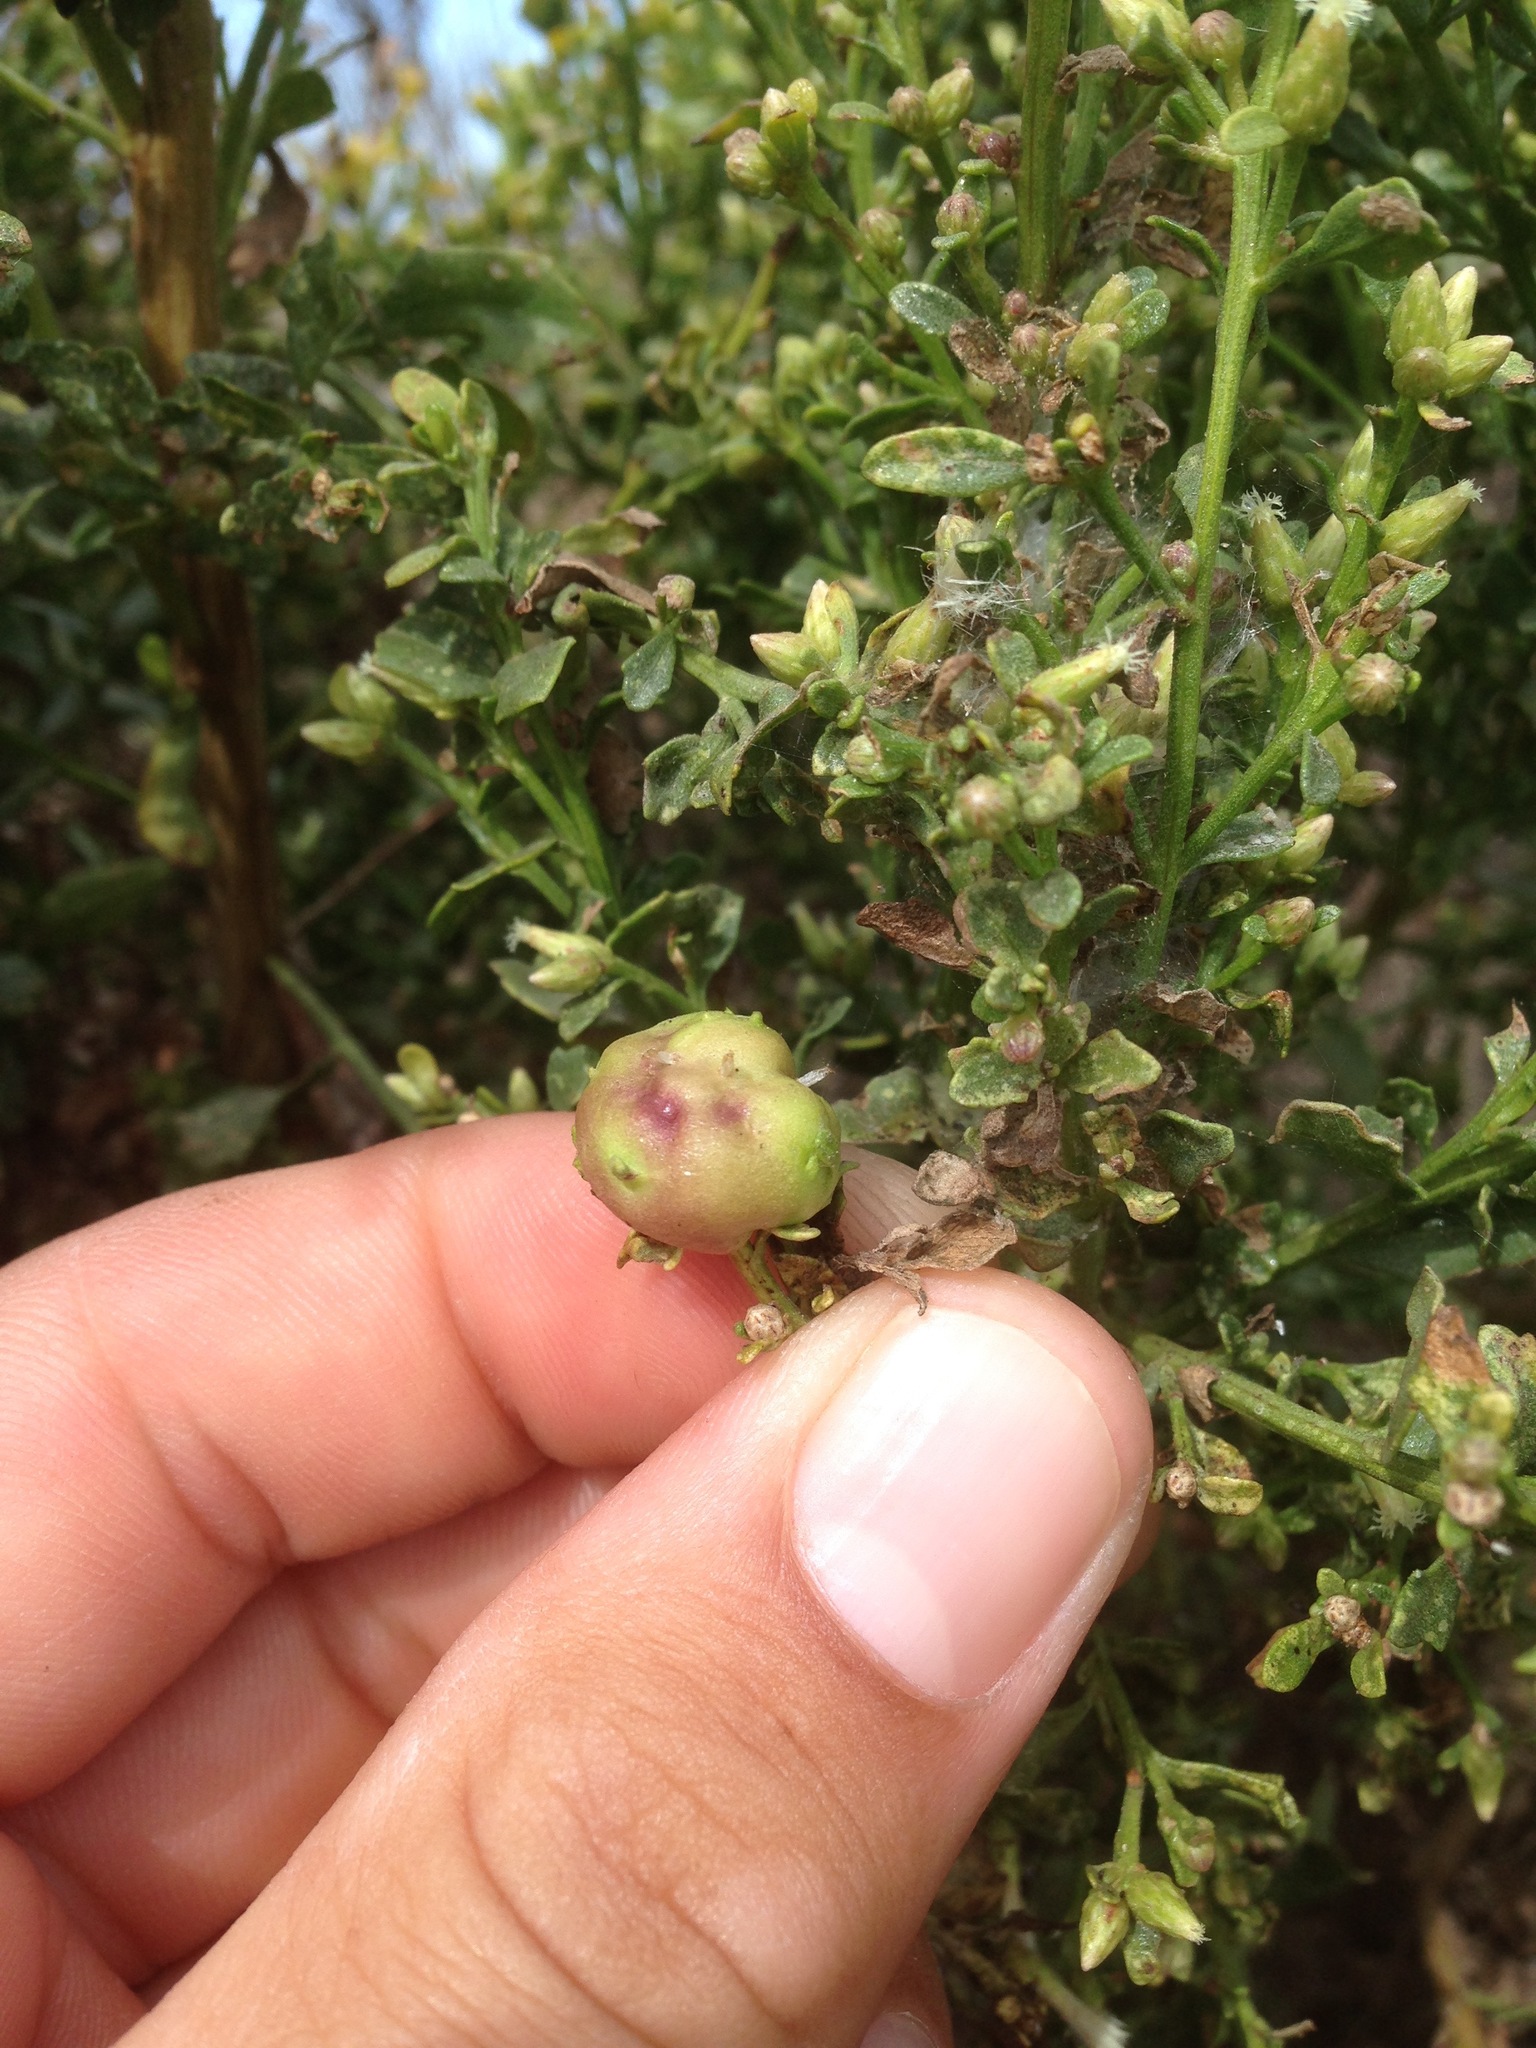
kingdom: Animalia
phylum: Arthropoda
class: Insecta
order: Diptera
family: Cecidomyiidae
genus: Rhopalomyia
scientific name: Rhopalomyia californica
